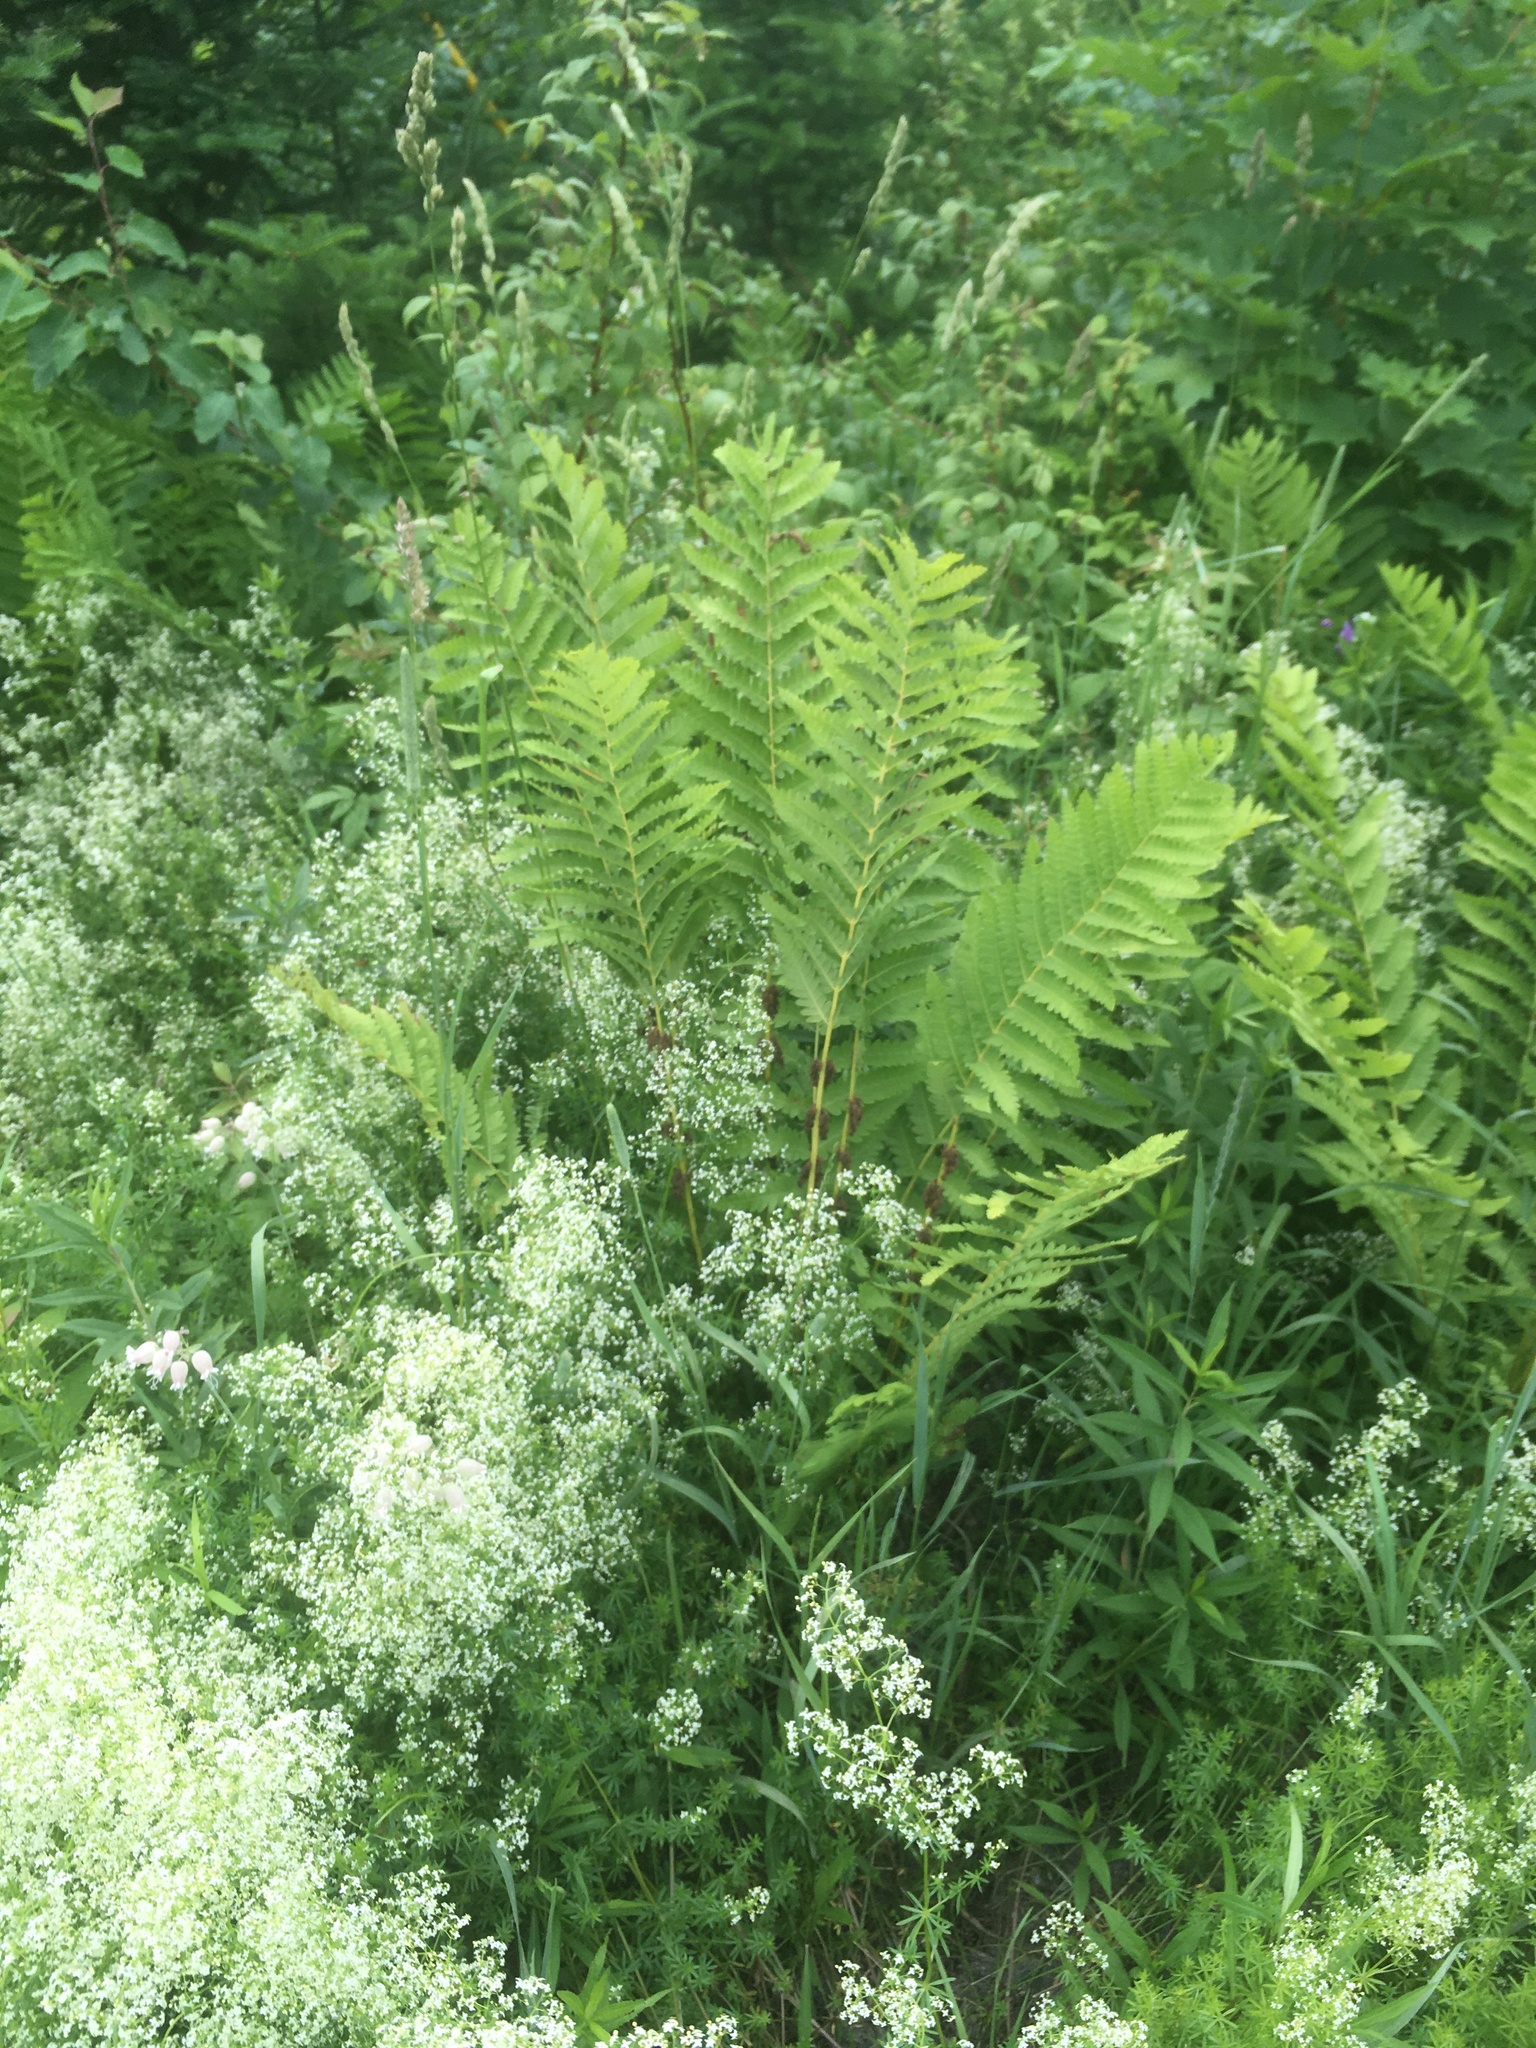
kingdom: Plantae
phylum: Tracheophyta
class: Polypodiopsida
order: Osmundales
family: Osmundaceae
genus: Claytosmunda
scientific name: Claytosmunda claytoniana
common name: Clayton's fern
